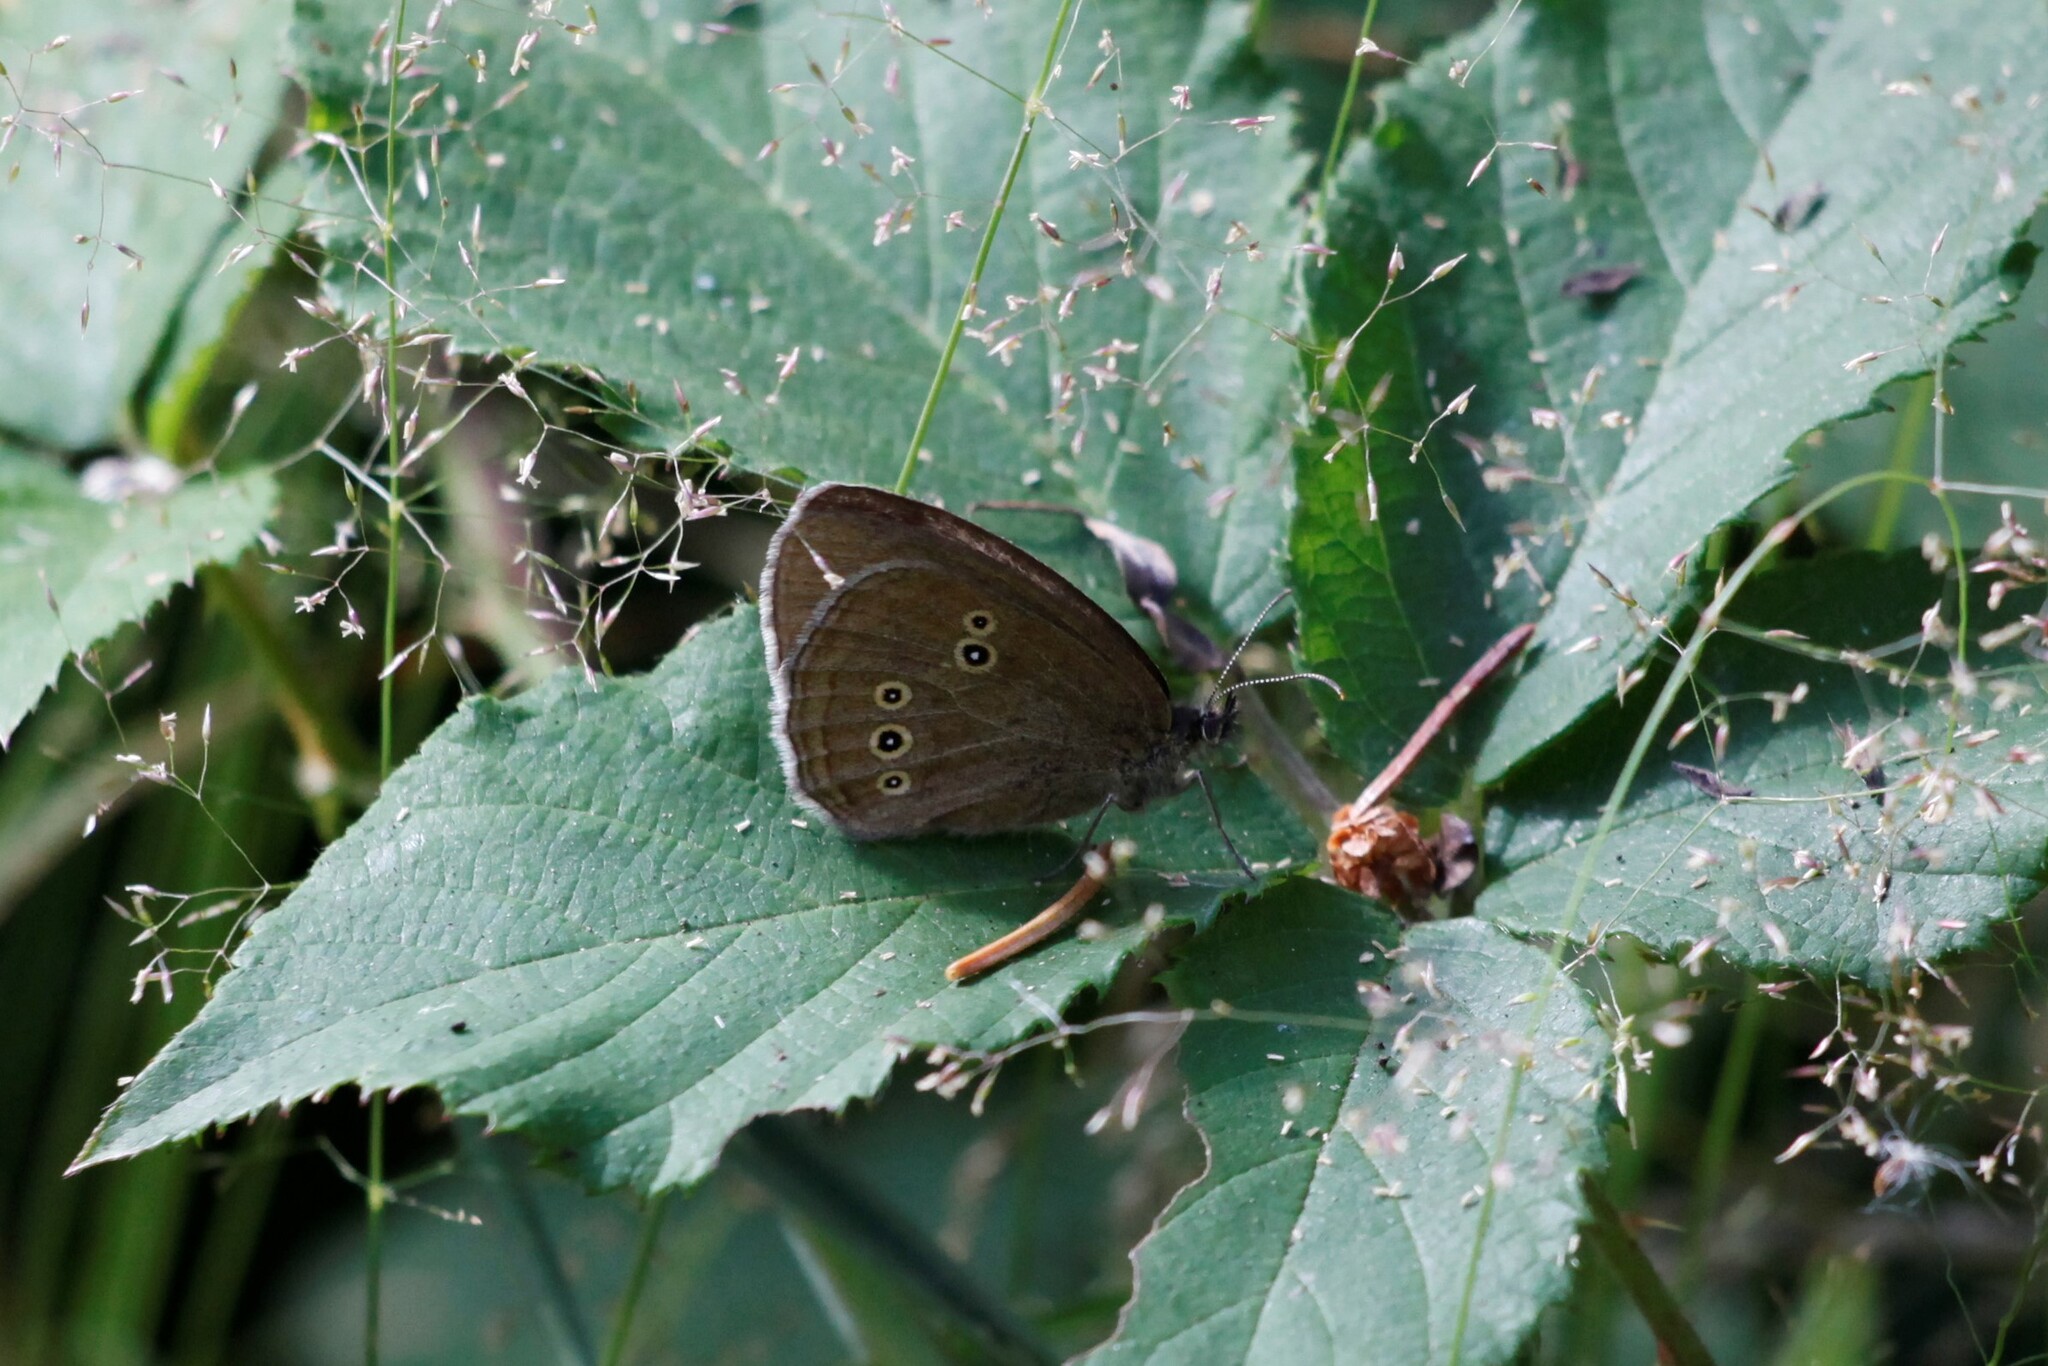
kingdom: Animalia
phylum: Arthropoda
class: Insecta
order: Lepidoptera
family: Nymphalidae
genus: Aphantopus
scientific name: Aphantopus hyperantus
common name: Ringlet
